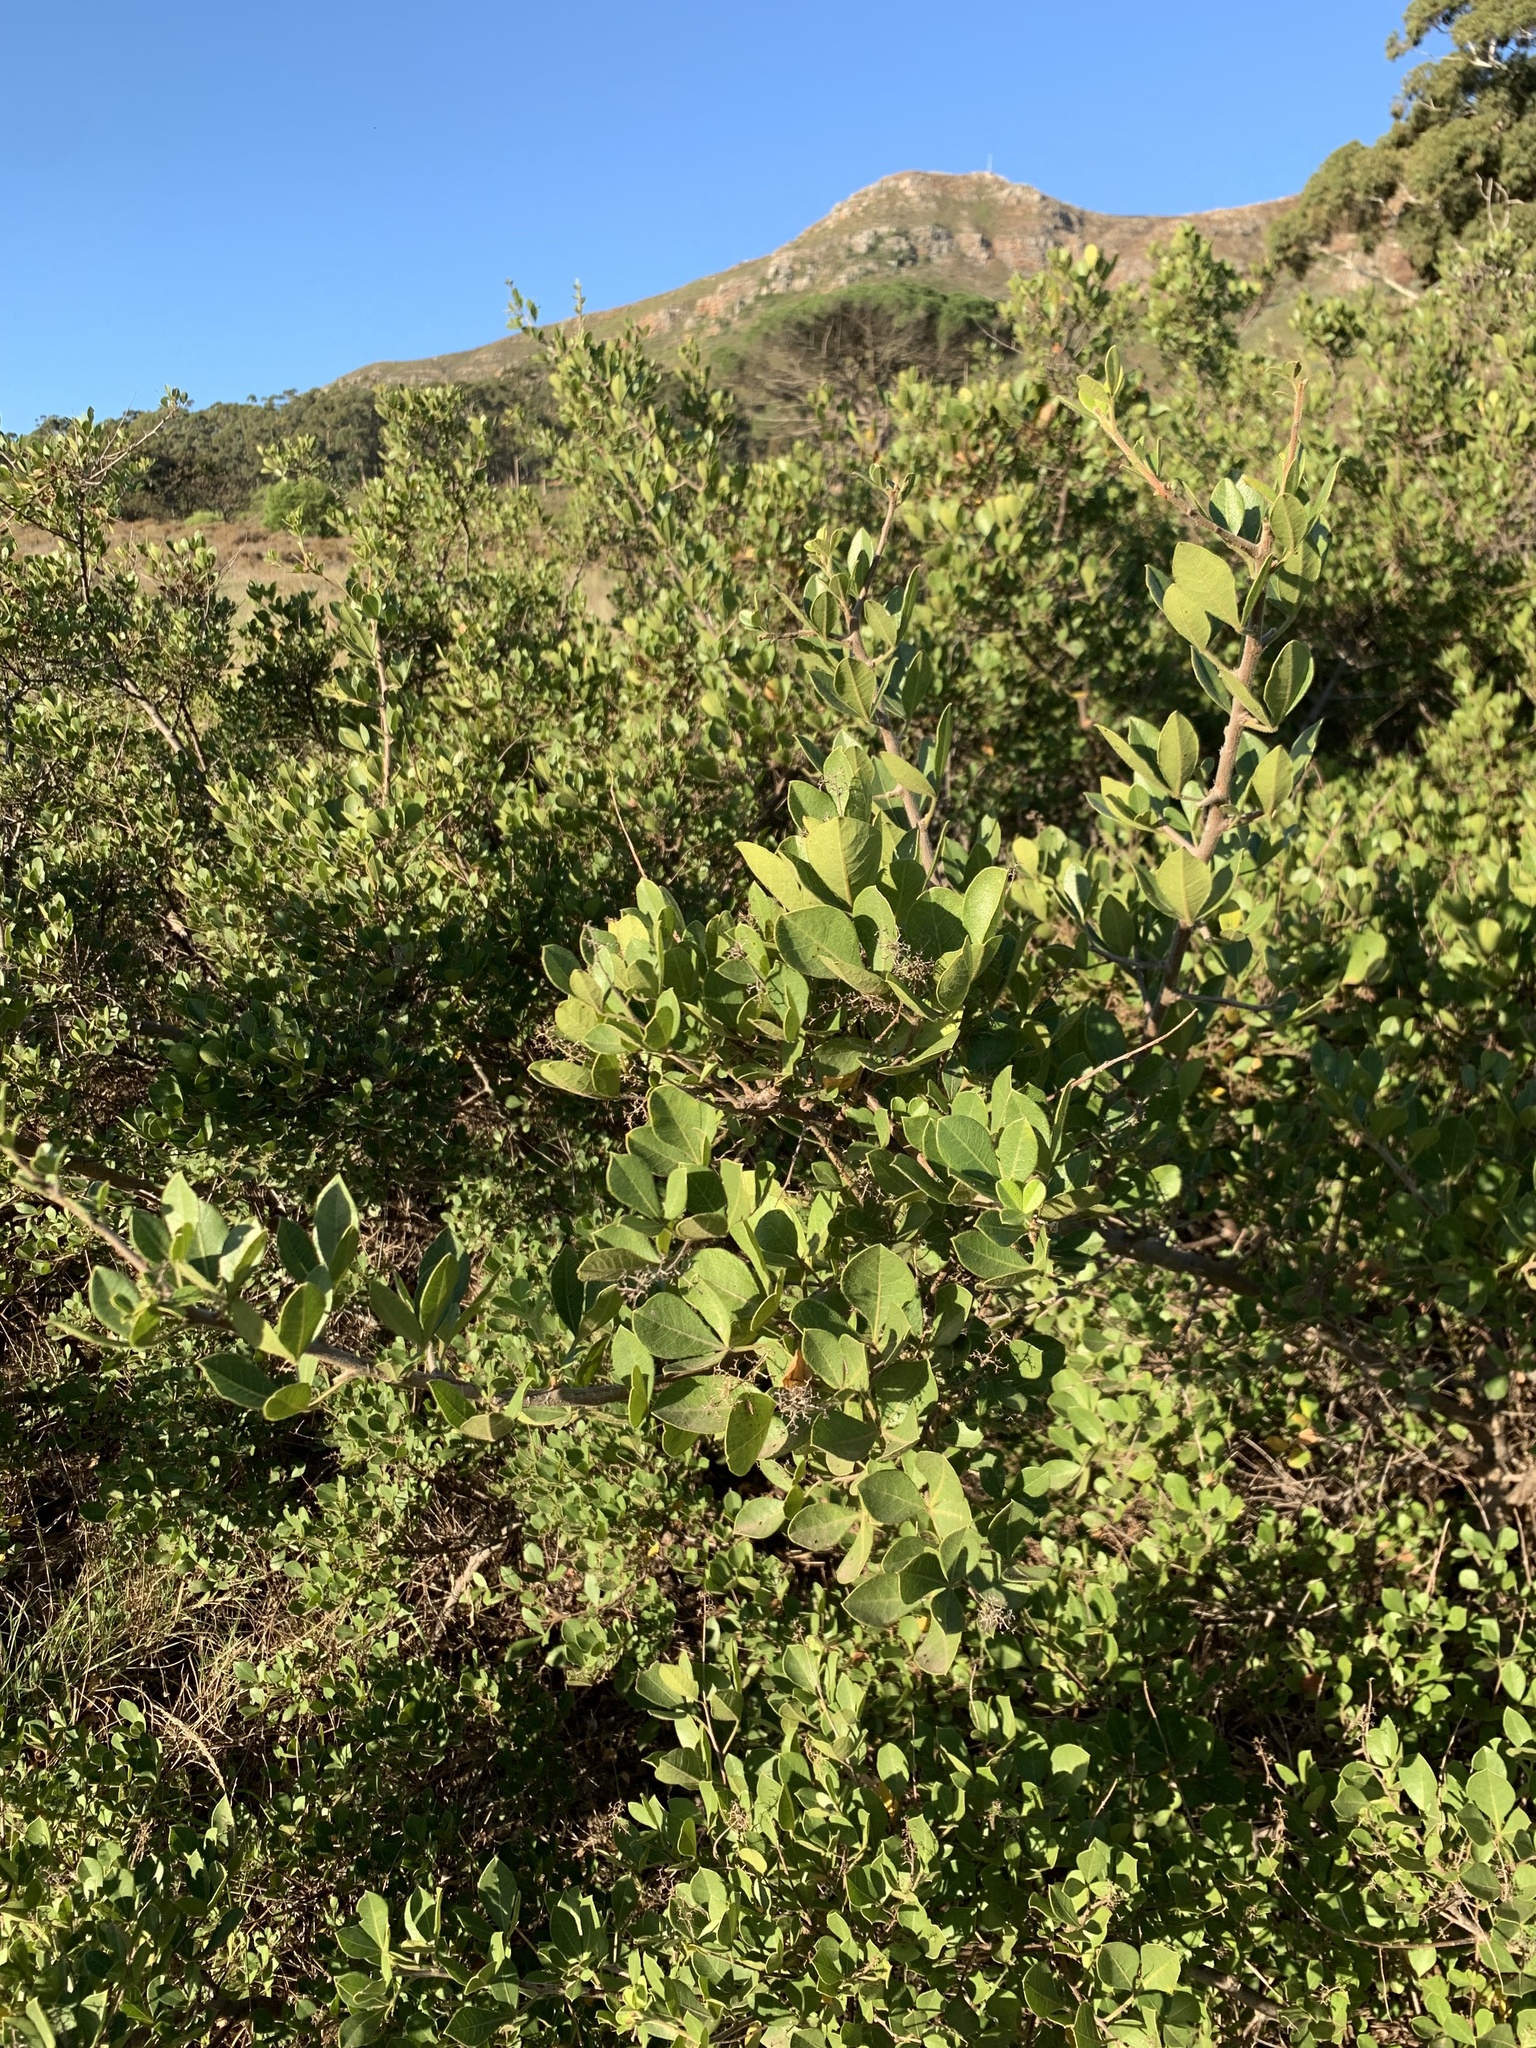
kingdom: Plantae
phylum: Tracheophyta
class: Magnoliopsida
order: Sapindales
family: Anacardiaceae
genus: Searsia
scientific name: Searsia laevigata
